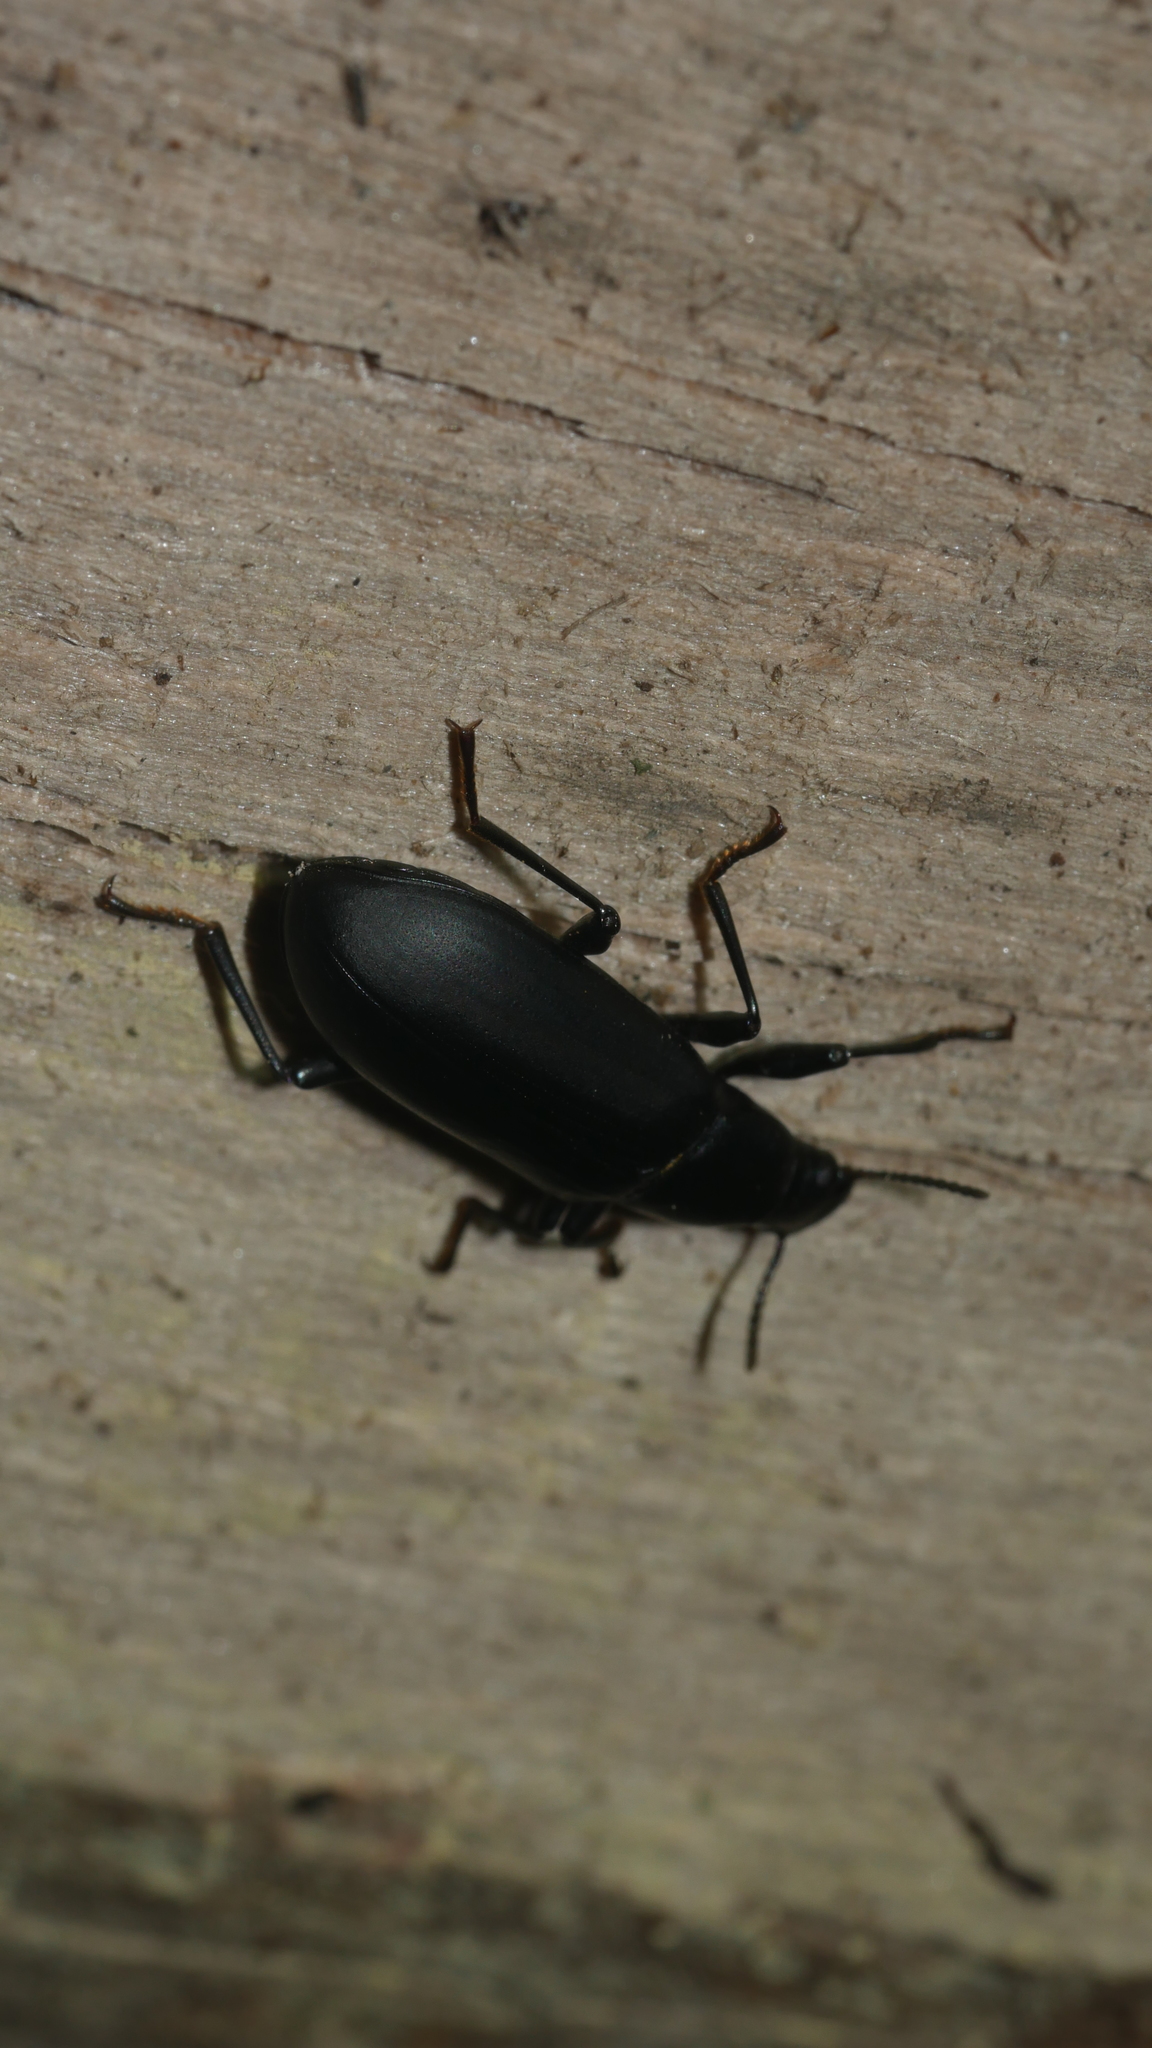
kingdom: Animalia
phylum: Arthropoda
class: Insecta
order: Coleoptera
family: Tenebrionidae
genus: Alobates
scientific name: Alobates
